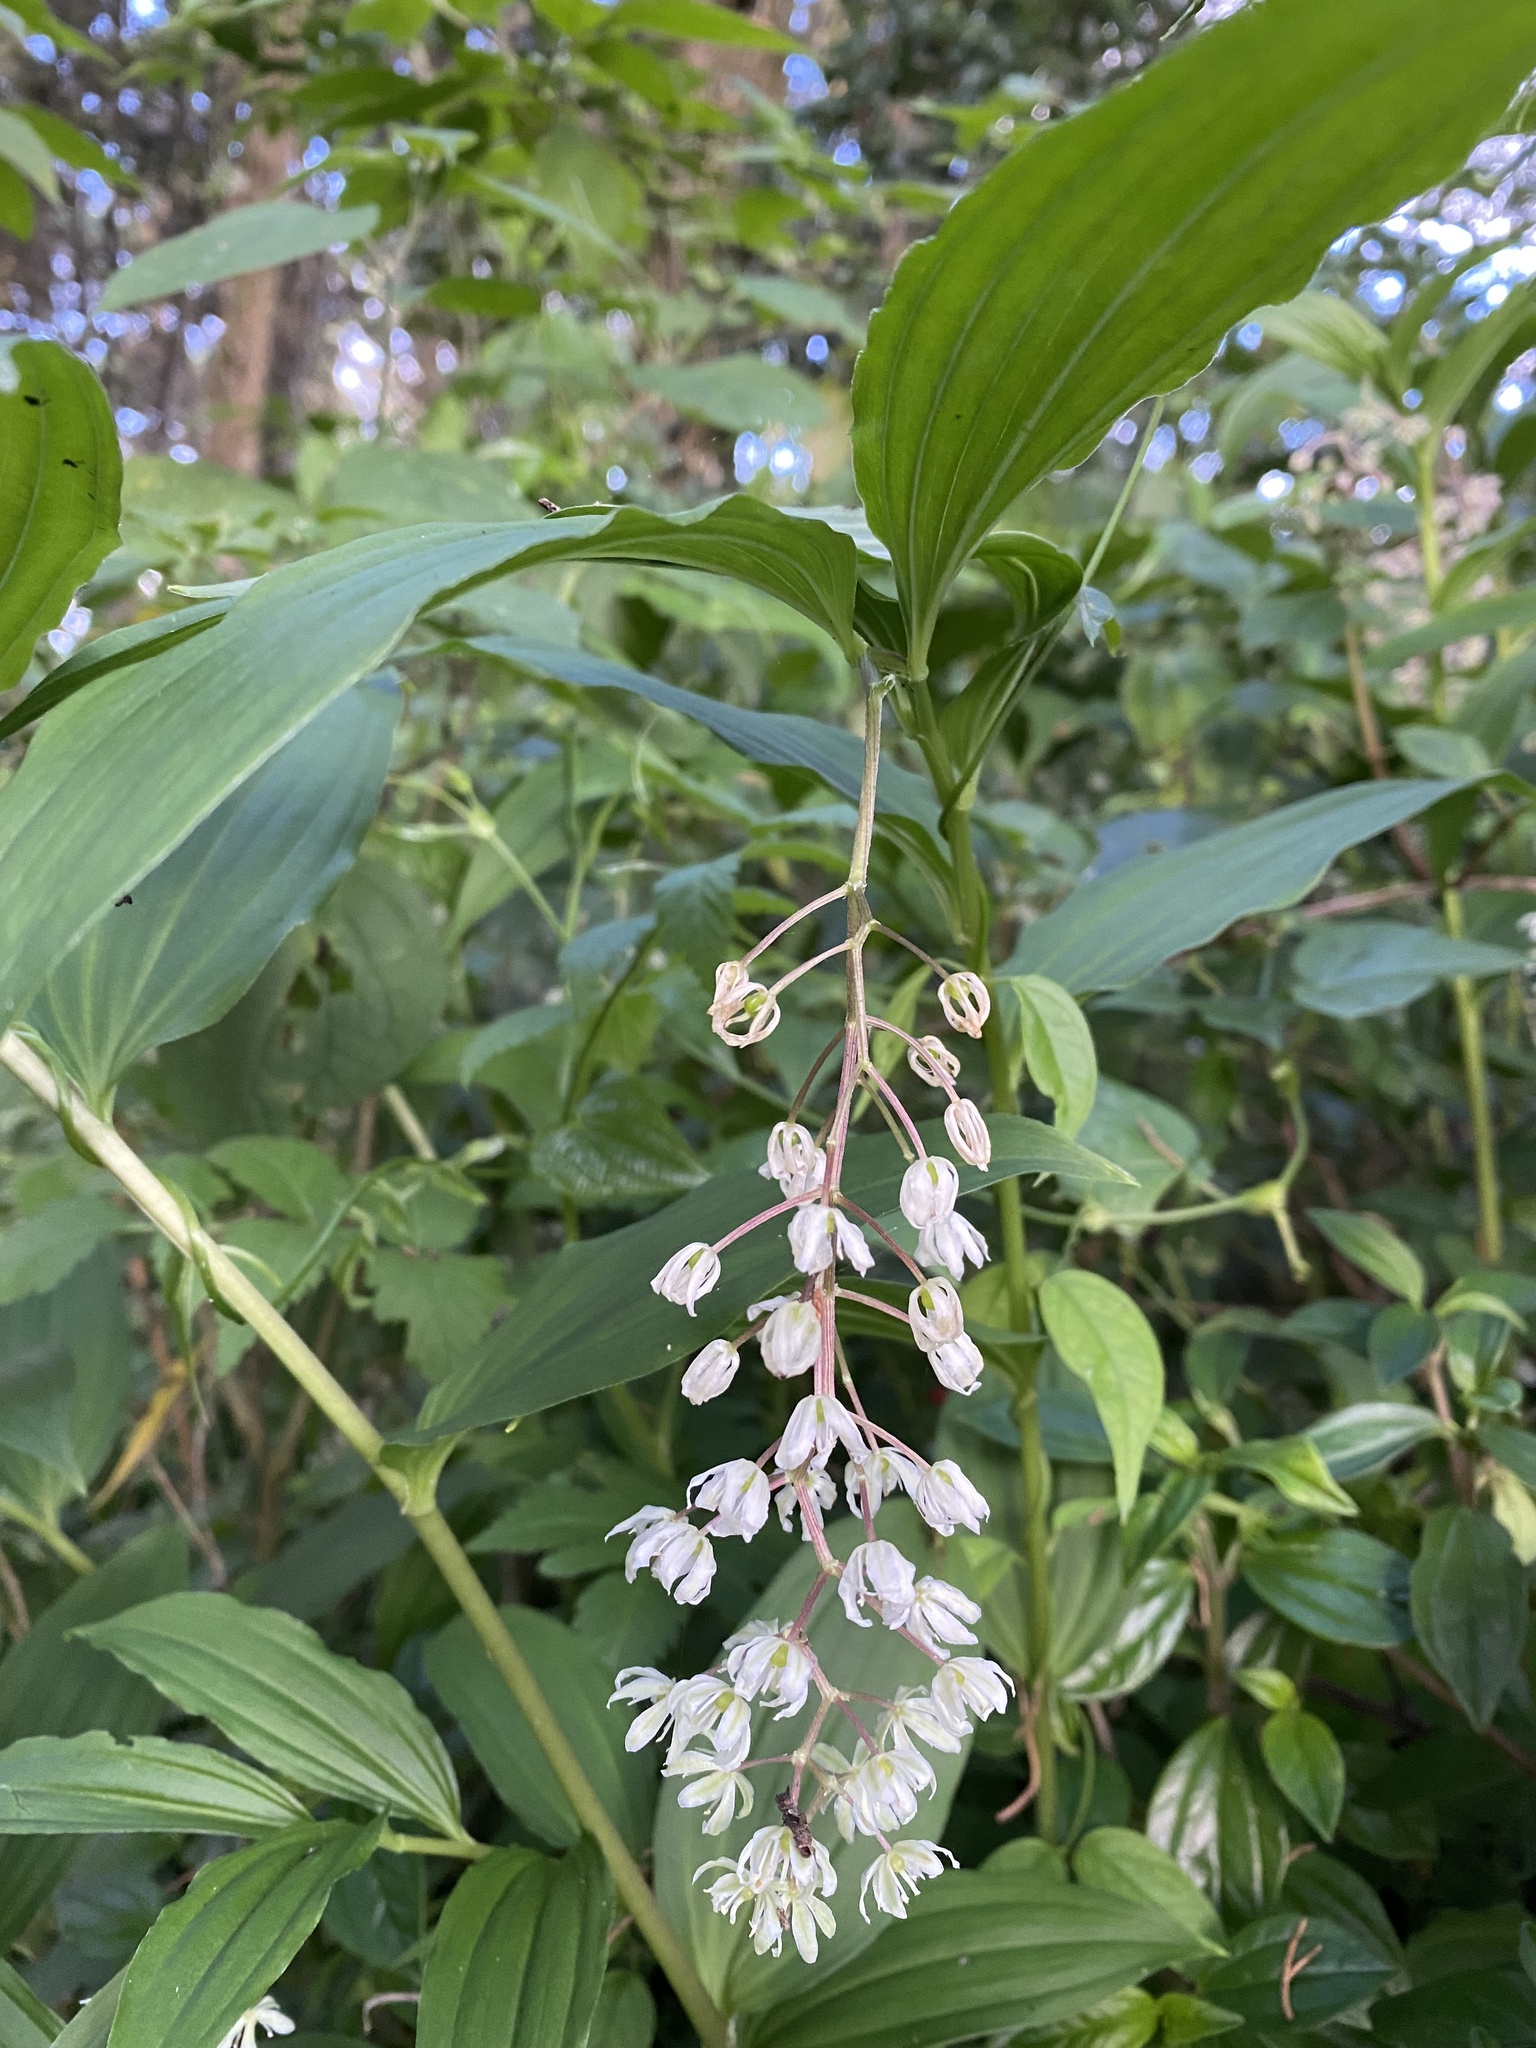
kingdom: Plantae
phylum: Tracheophyta
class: Liliopsida
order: Asparagales
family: Asparagaceae
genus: Maianthemum
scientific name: Maianthemum flexuosum
